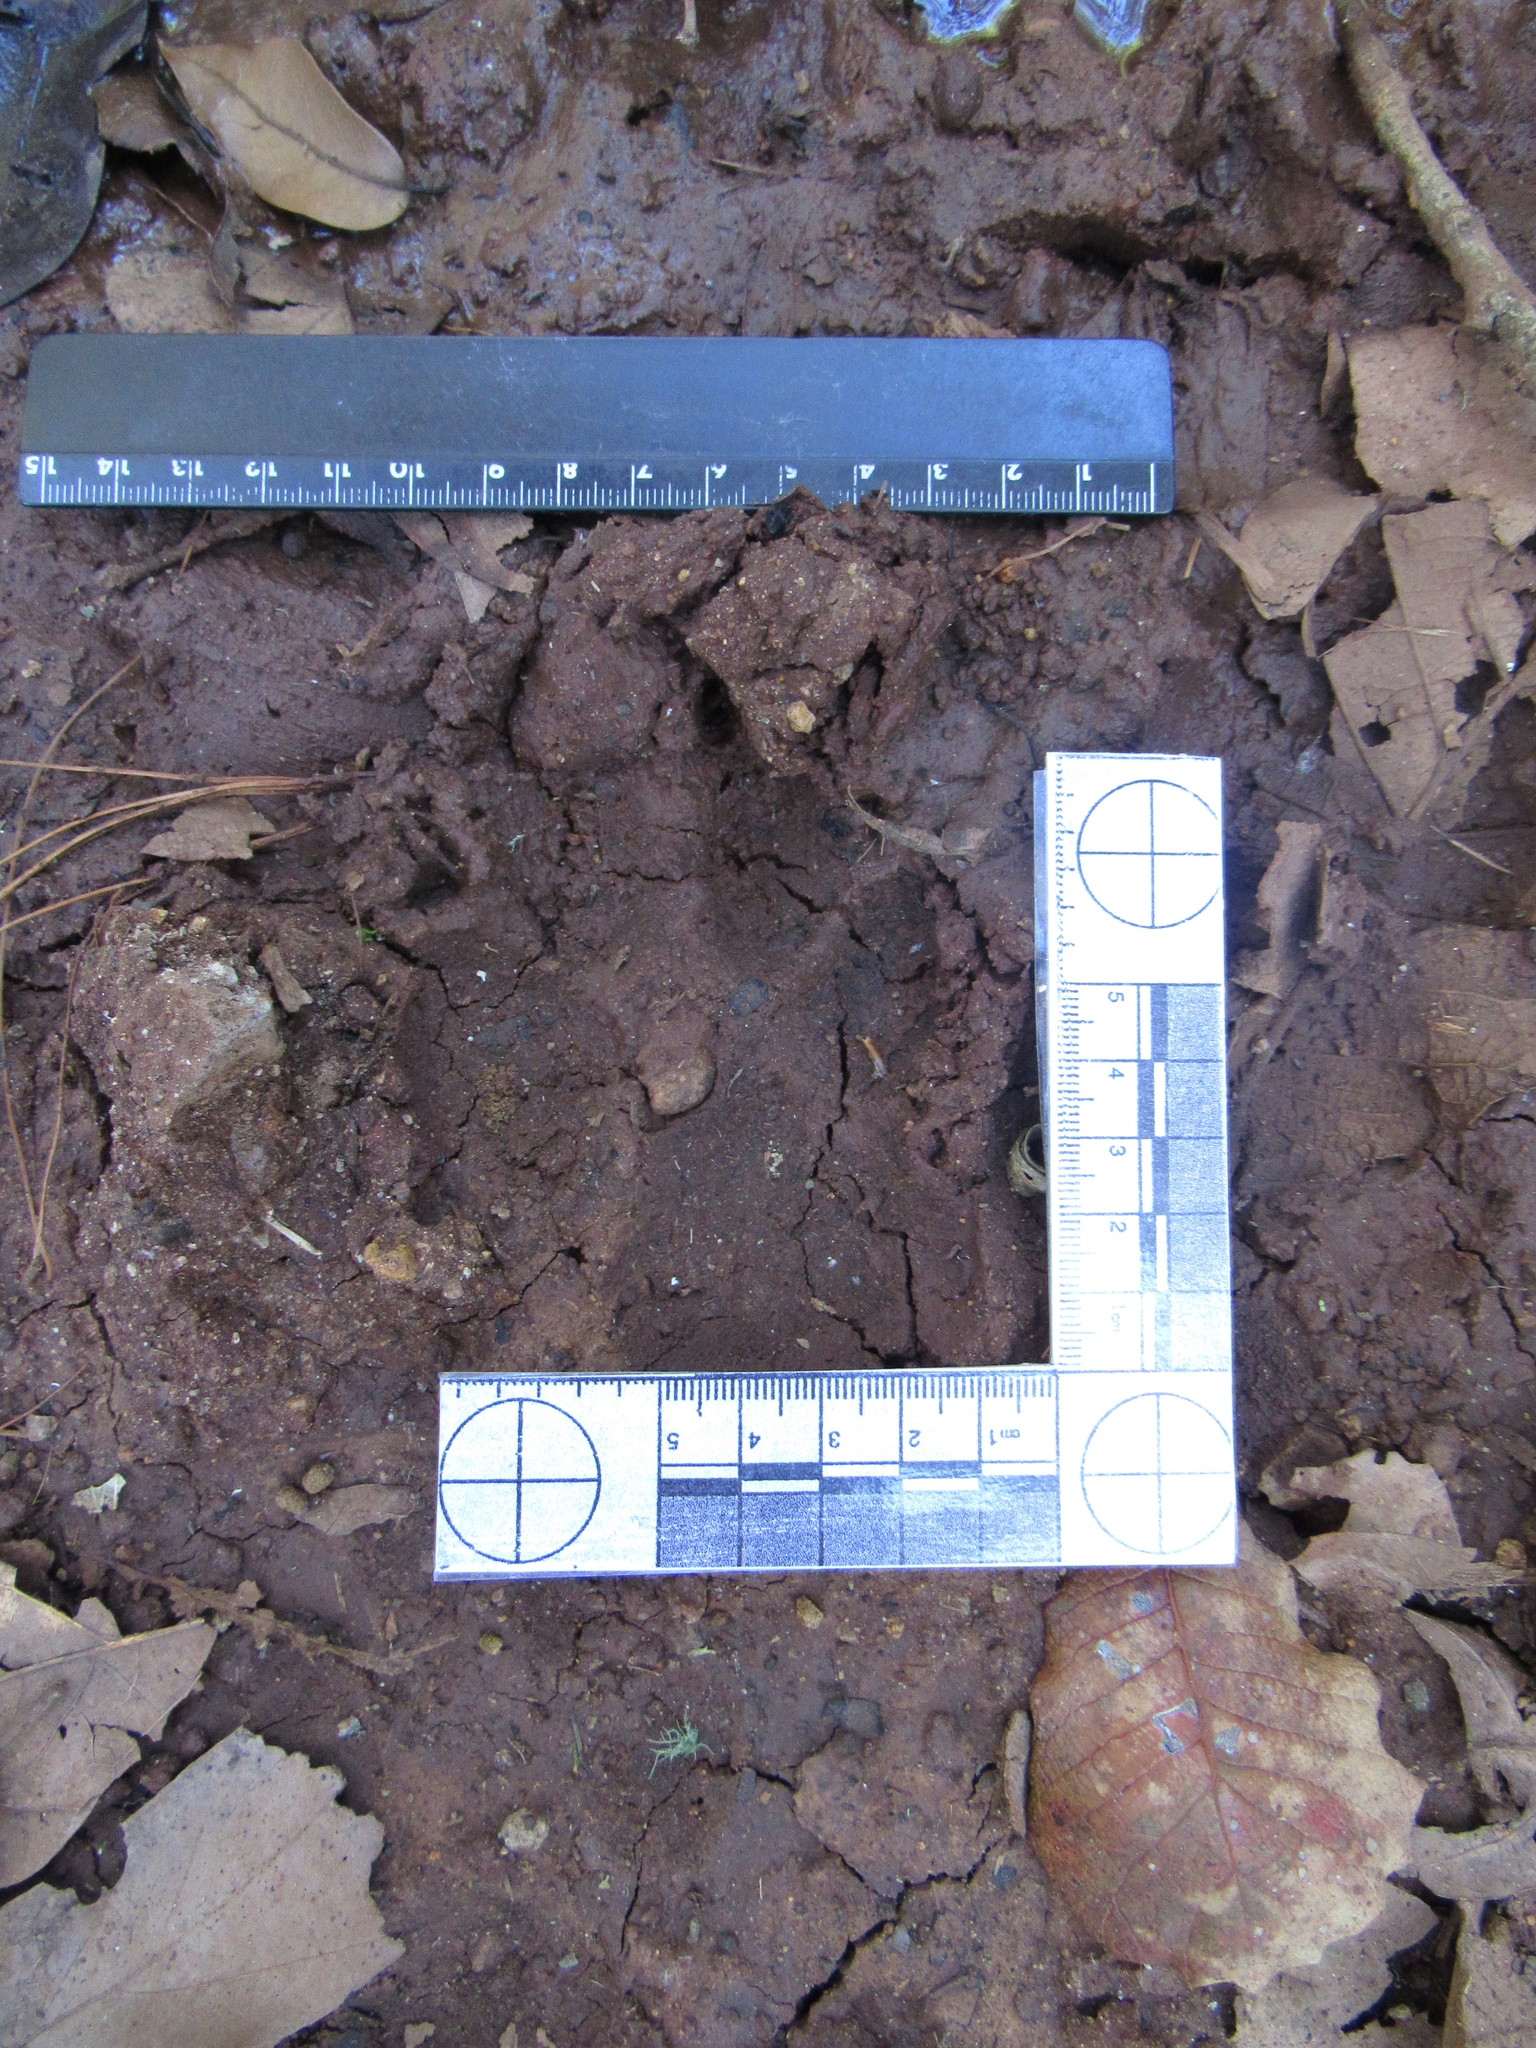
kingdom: Animalia
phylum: Chordata
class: Mammalia
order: Carnivora
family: Canidae
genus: Canis
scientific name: Canis latrans
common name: Coyote
